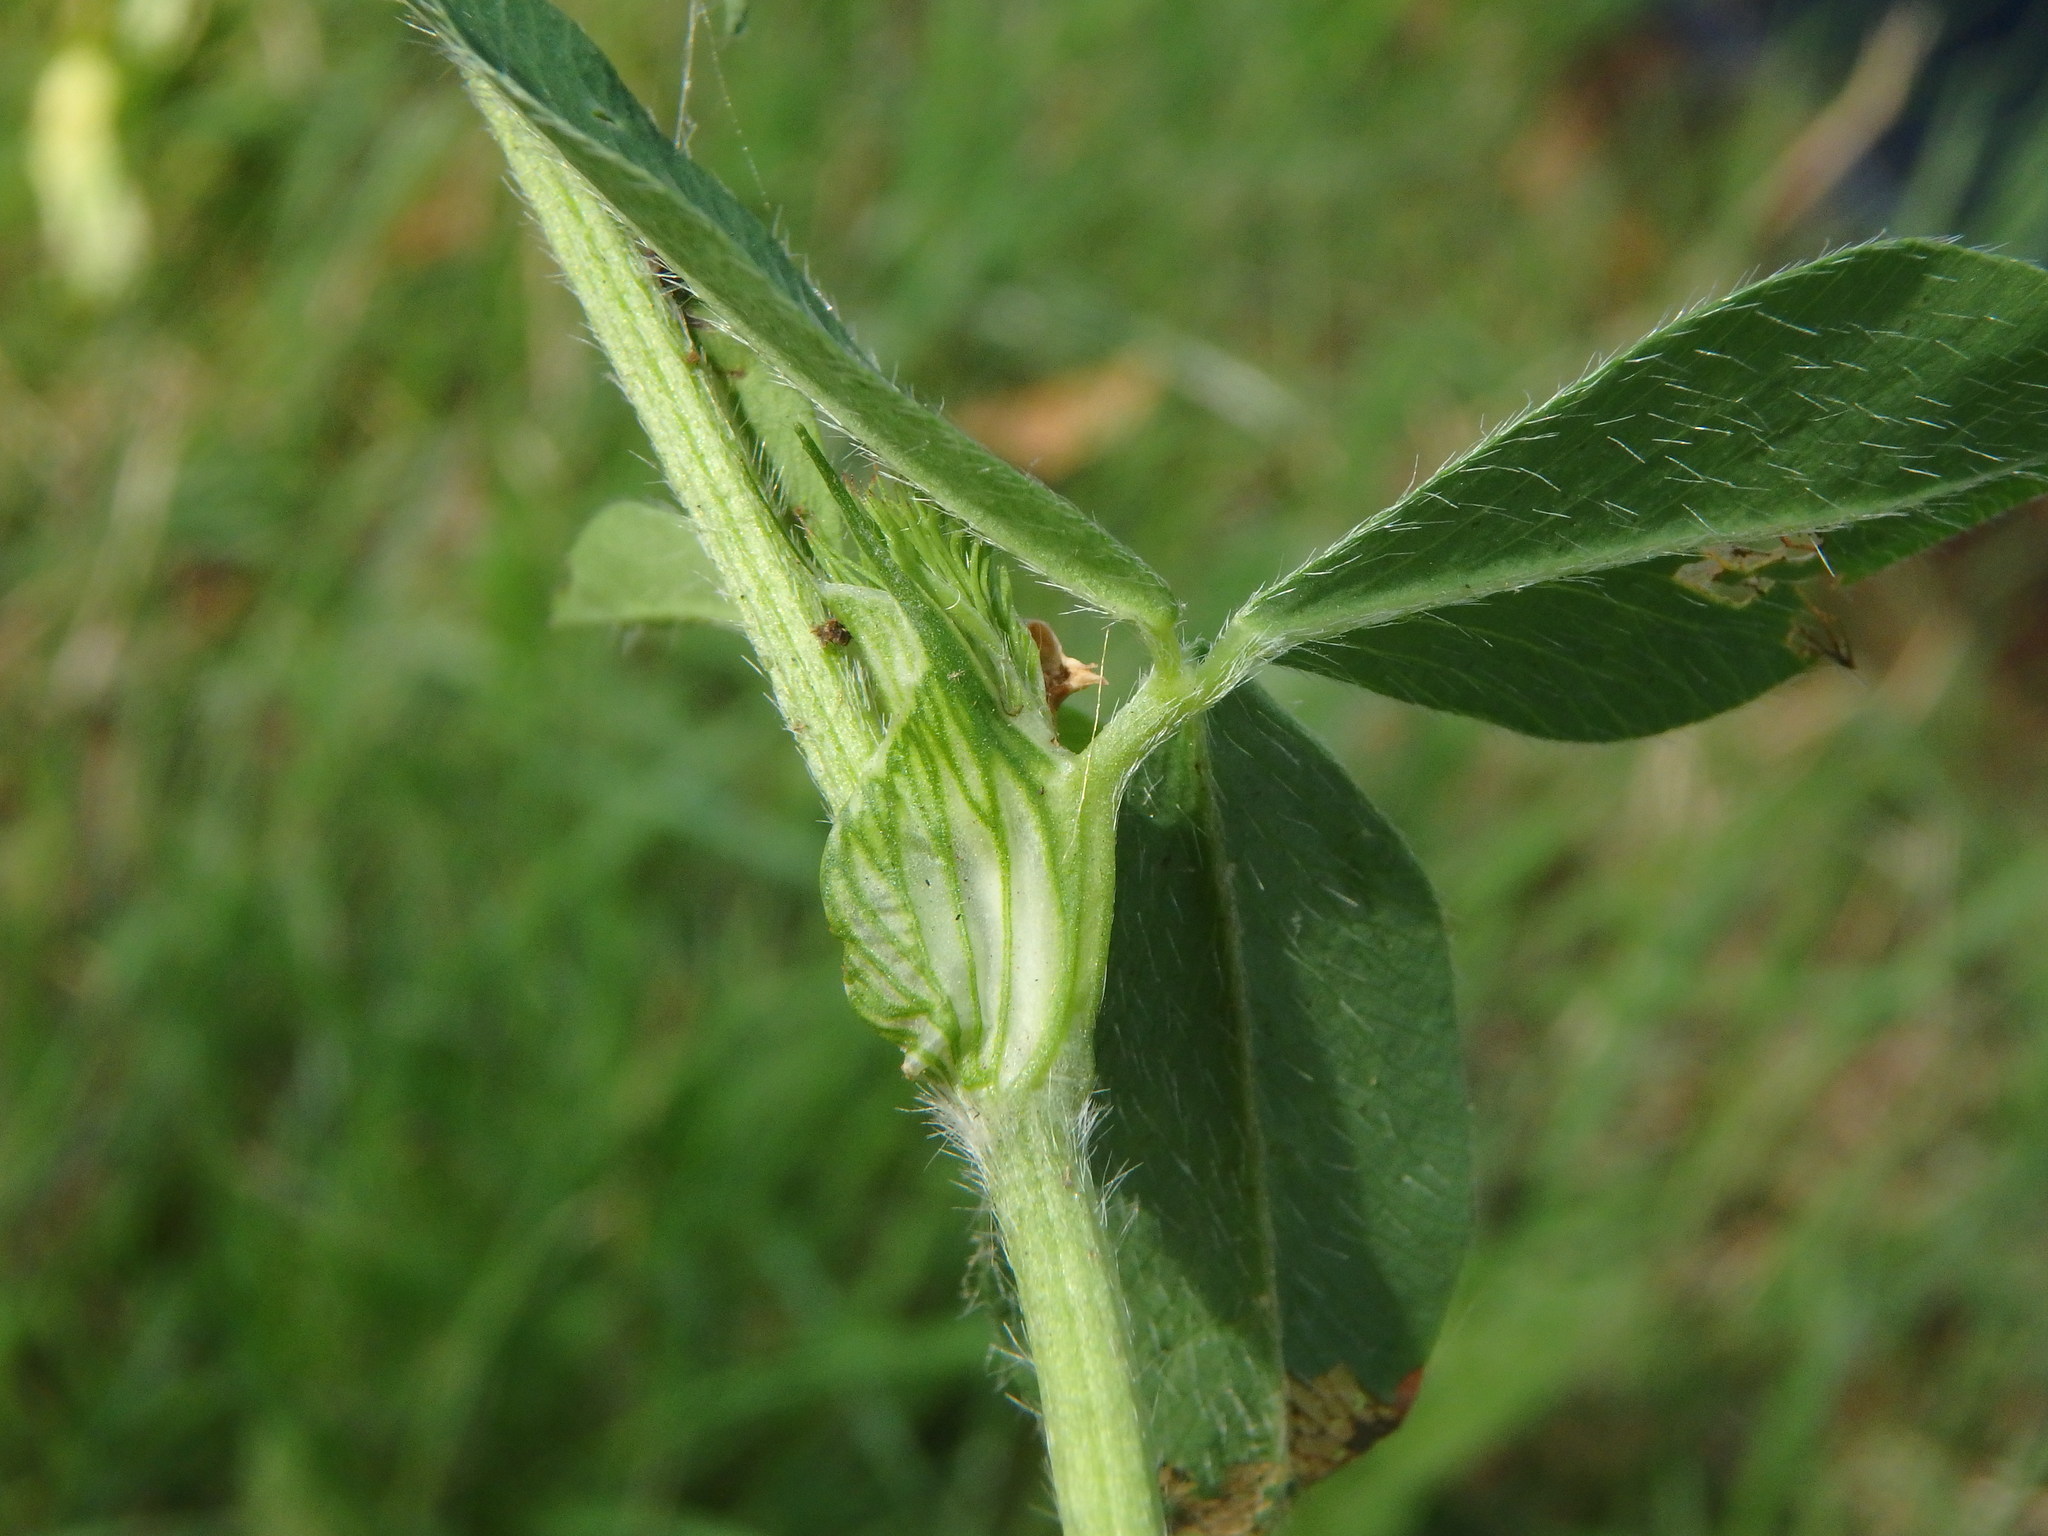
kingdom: Plantae
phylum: Tracheophyta
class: Magnoliopsida
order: Fabales
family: Fabaceae
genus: Trifolium
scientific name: Trifolium pratense
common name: Red clover
